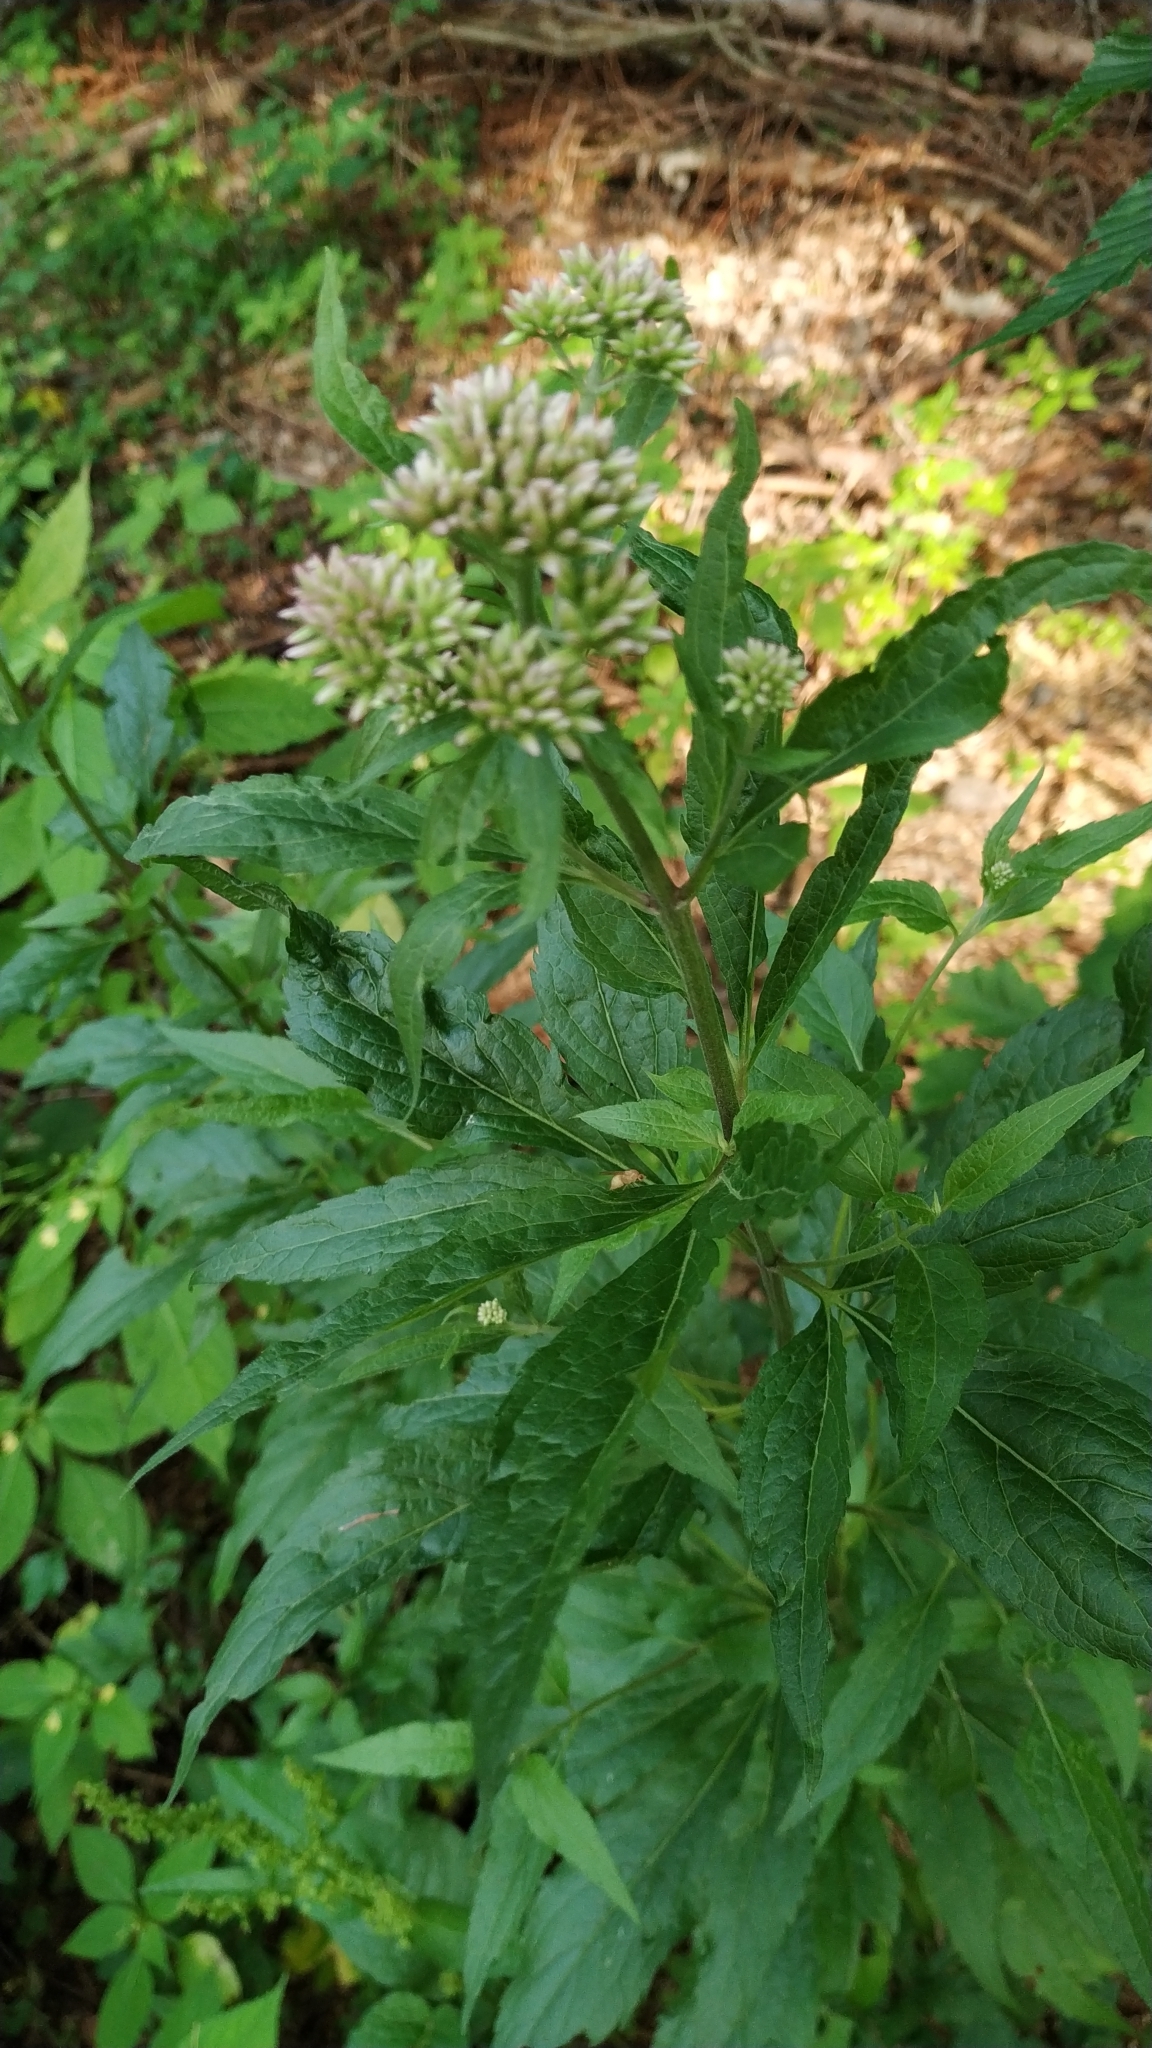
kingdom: Plantae
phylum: Tracheophyta
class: Magnoliopsida
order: Asterales
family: Asteraceae
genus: Eupatorium
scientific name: Eupatorium cannabinum
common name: Hemp-agrimony
